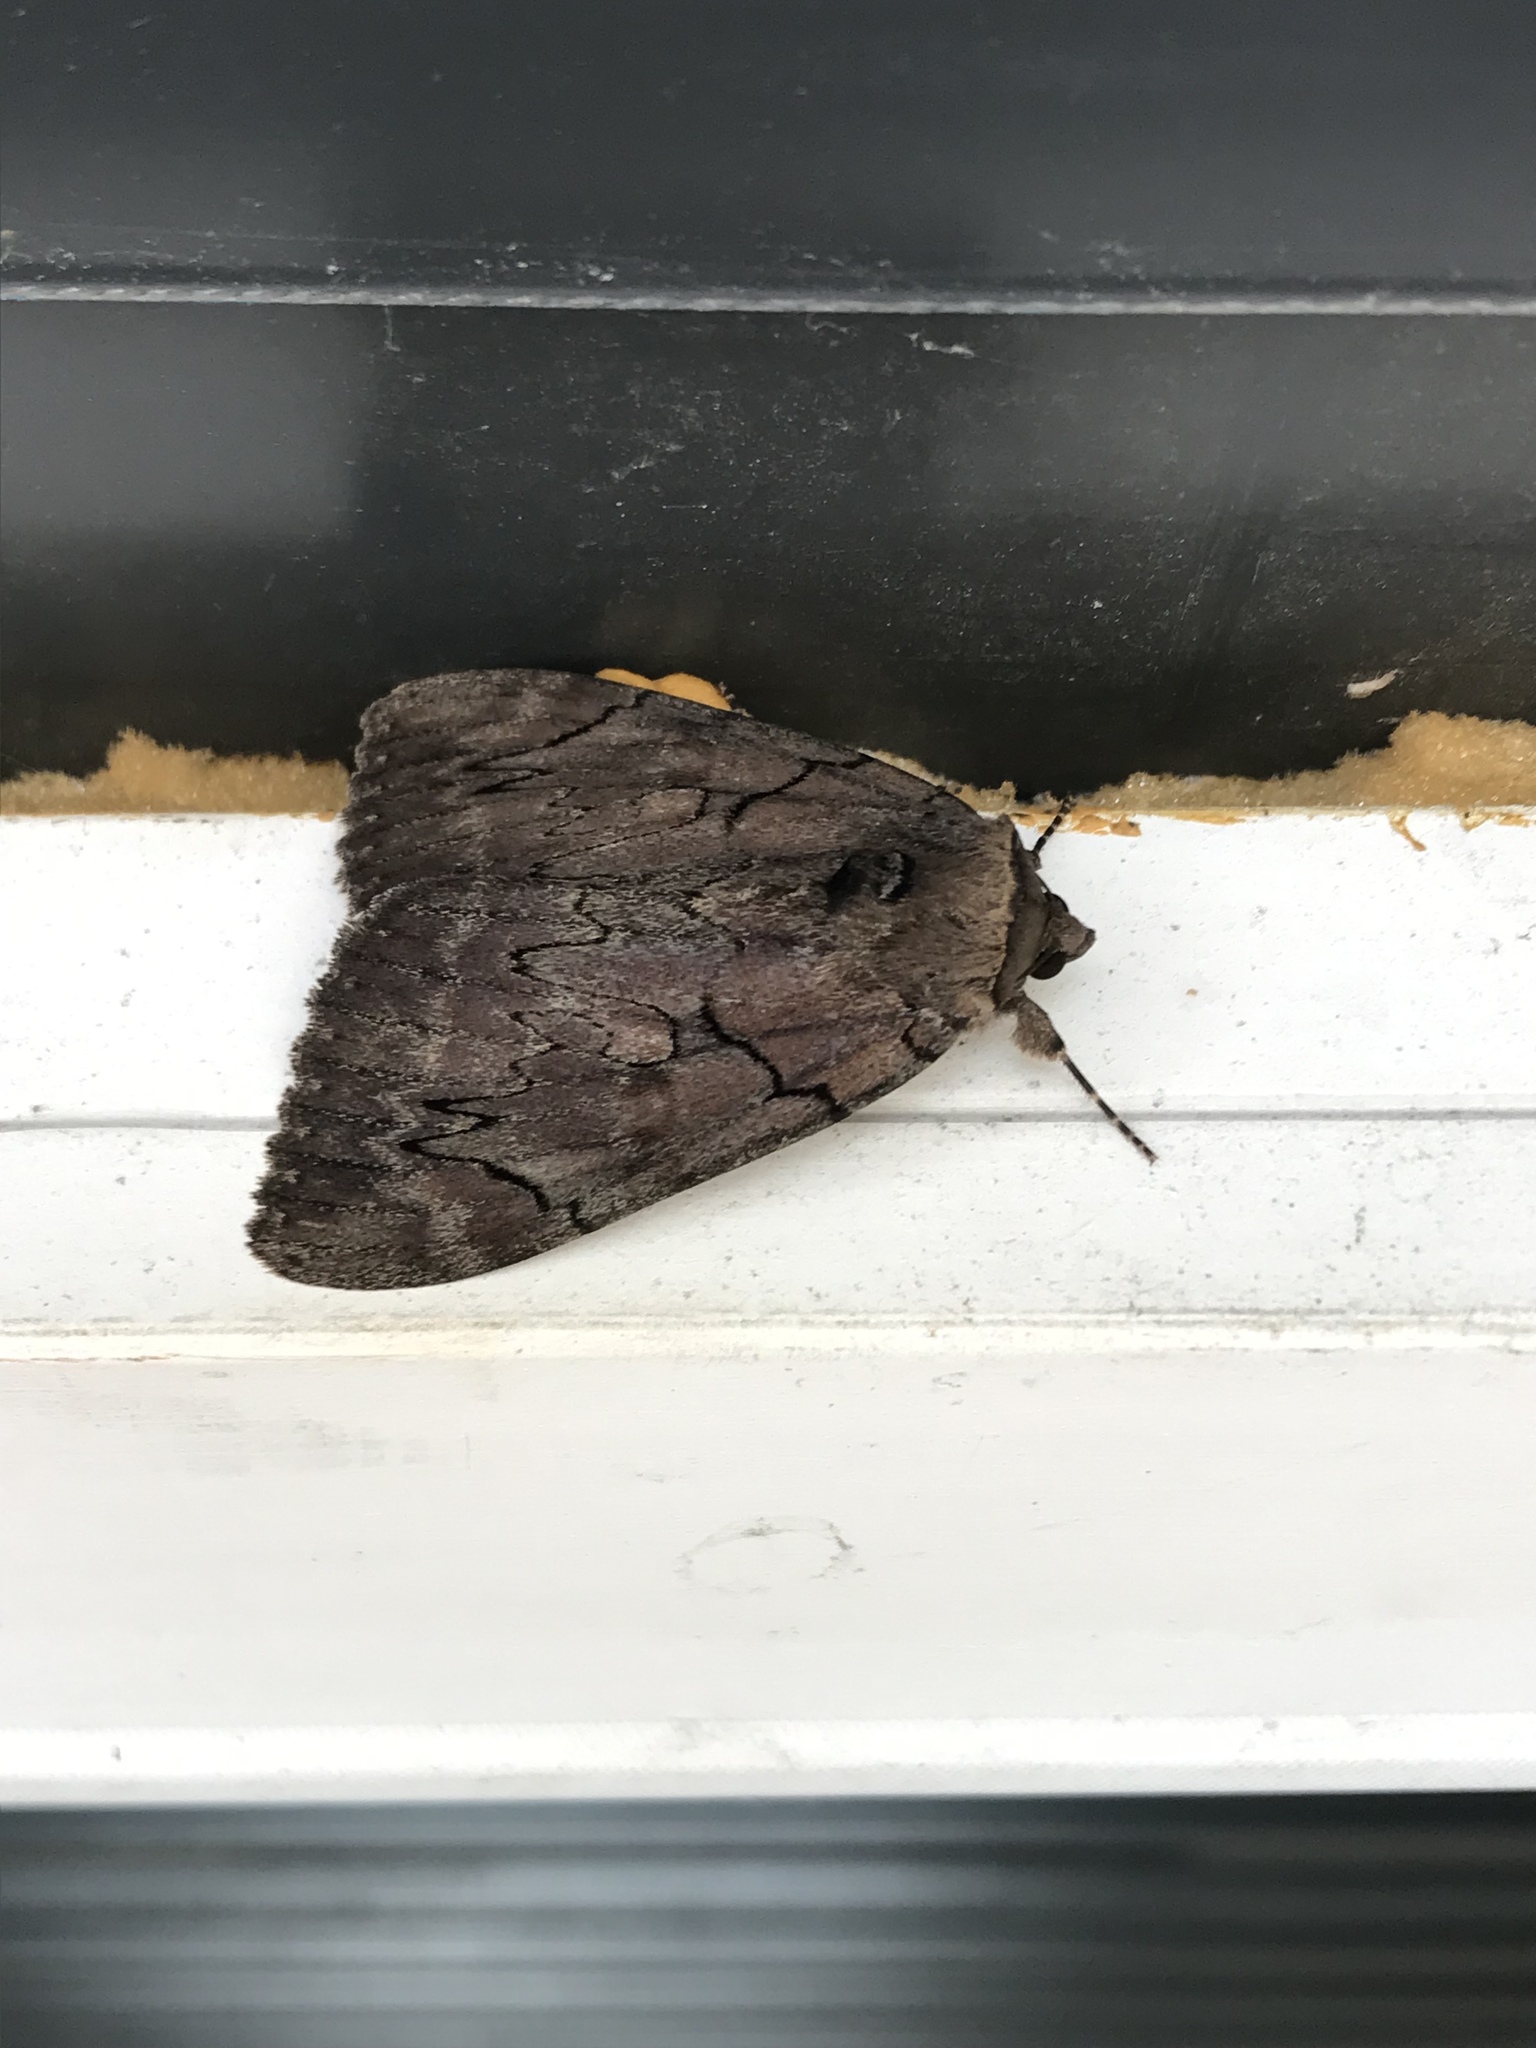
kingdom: Animalia
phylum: Arthropoda
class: Insecta
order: Lepidoptera
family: Erebidae
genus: Catocala
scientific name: Catocala cara
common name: Darling underwing
